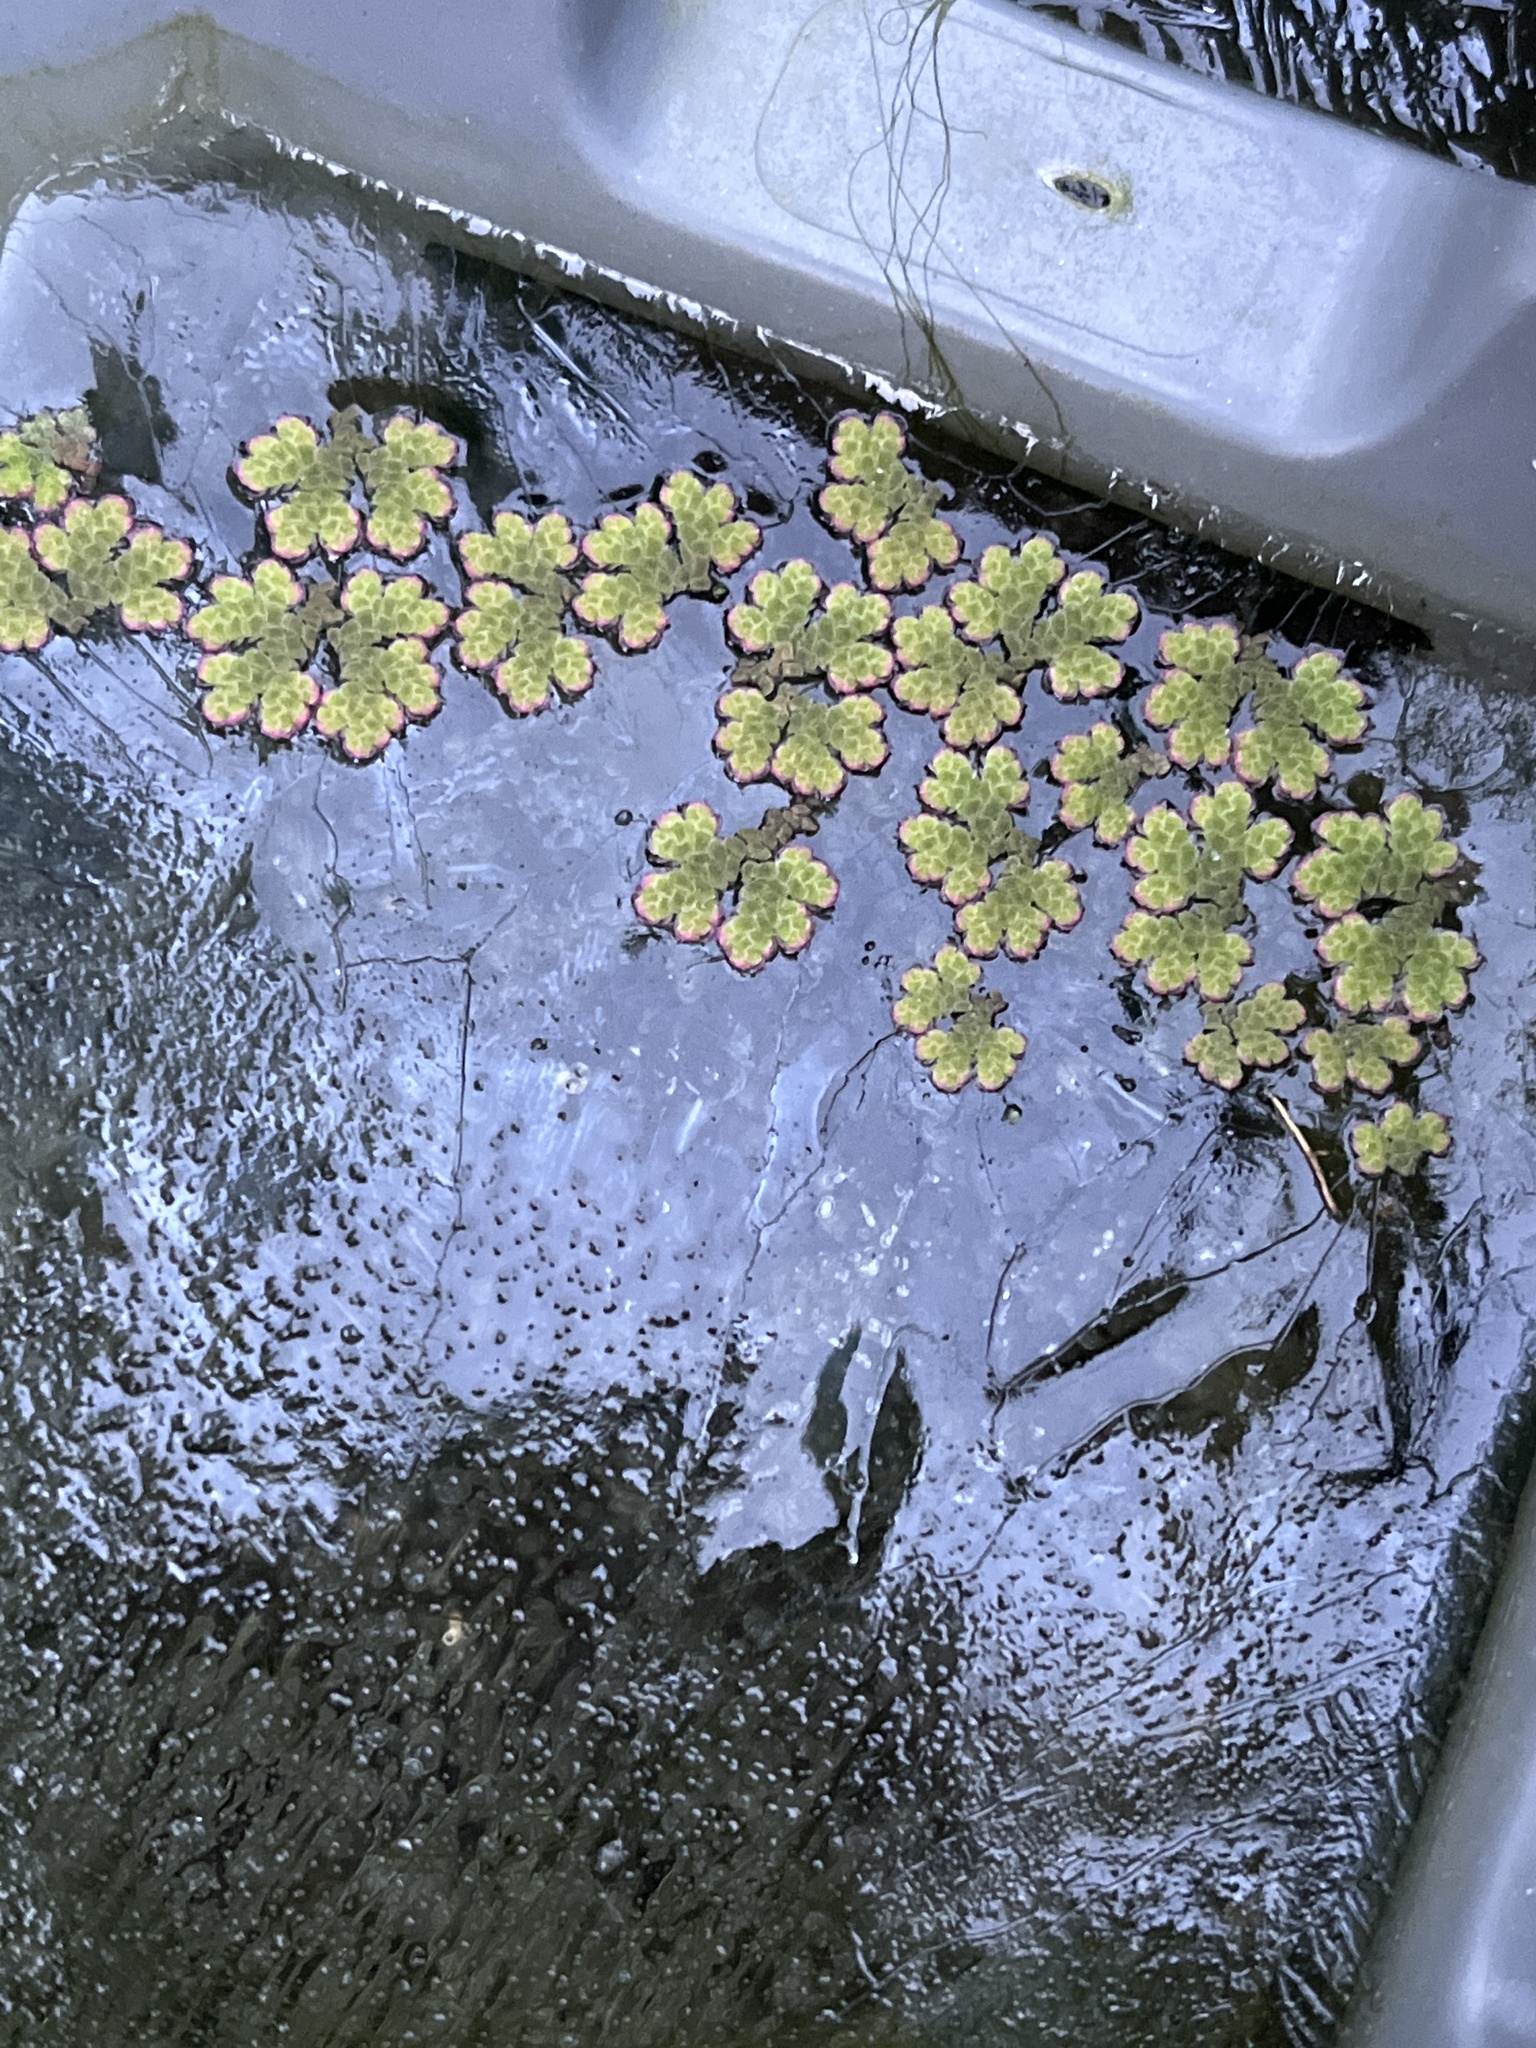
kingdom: Plantae
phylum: Tracheophyta
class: Polypodiopsida
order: Salviniales
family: Salviniaceae
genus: Azolla
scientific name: Azolla filiculoides
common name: Water fern
